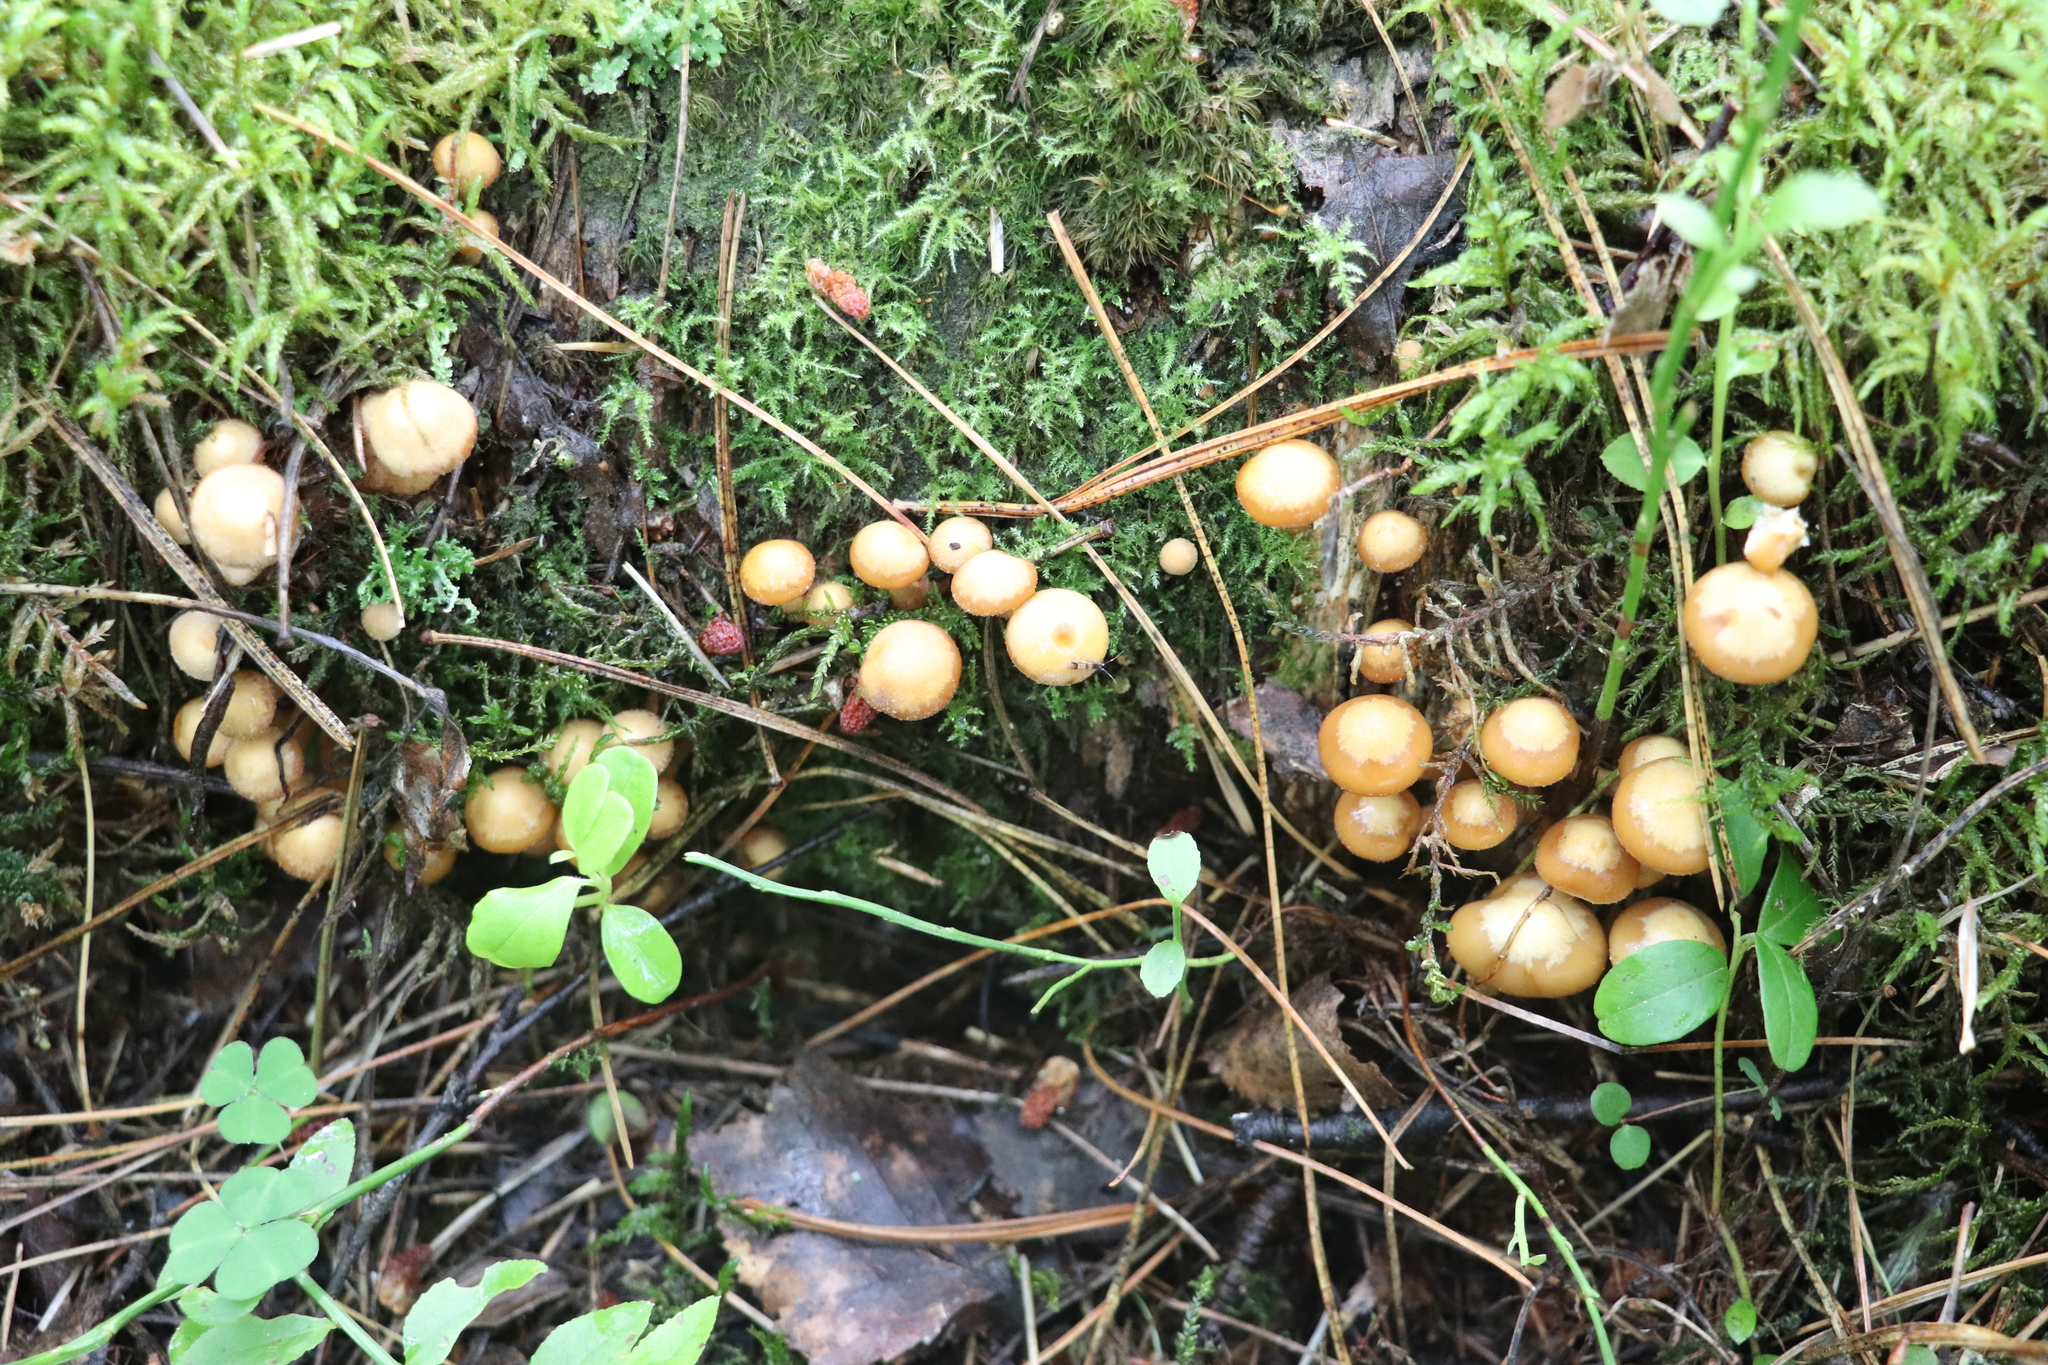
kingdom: Fungi
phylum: Basidiomycota
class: Agaricomycetes
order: Agaricales
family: Strophariaceae
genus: Kuehneromyces
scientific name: Kuehneromyces mutabilis
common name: Sheathed woodtuft
